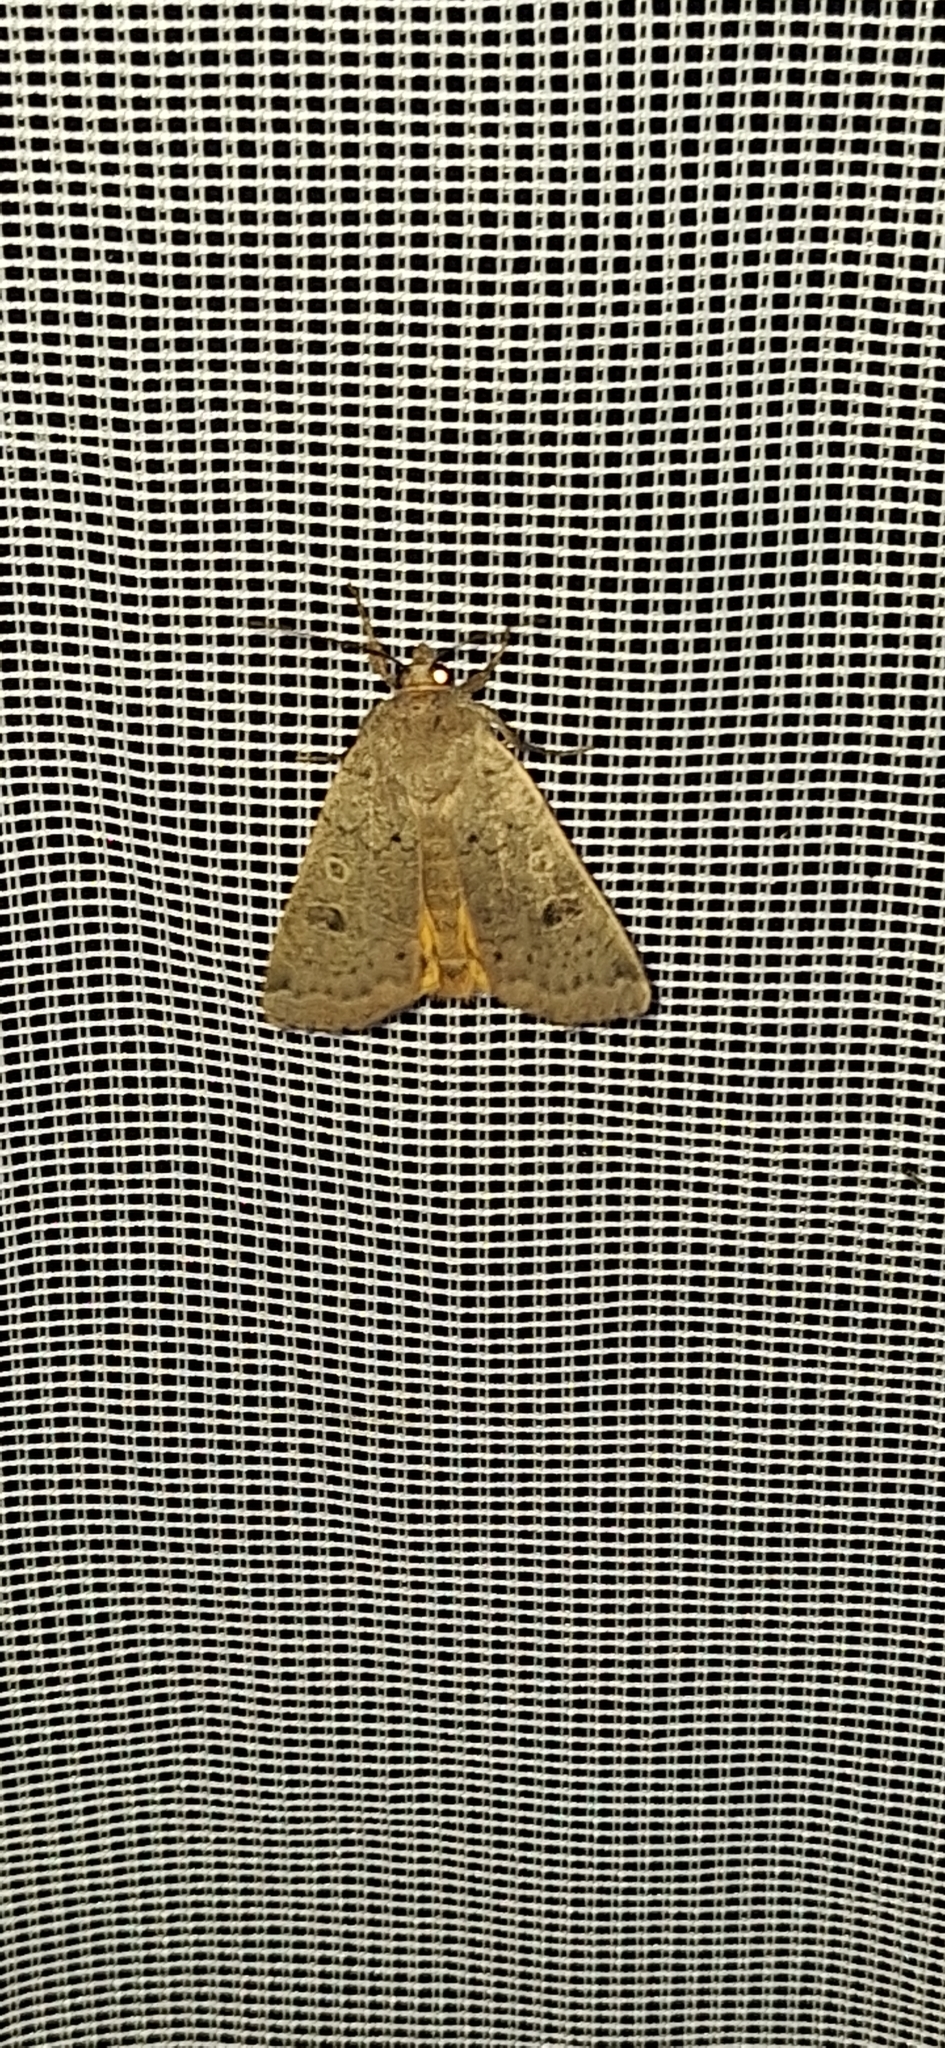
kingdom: Animalia
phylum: Arthropoda
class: Insecta
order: Lepidoptera
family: Noctuidae
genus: Noctua
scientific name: Noctua comes
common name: Lesser yellow underwing
